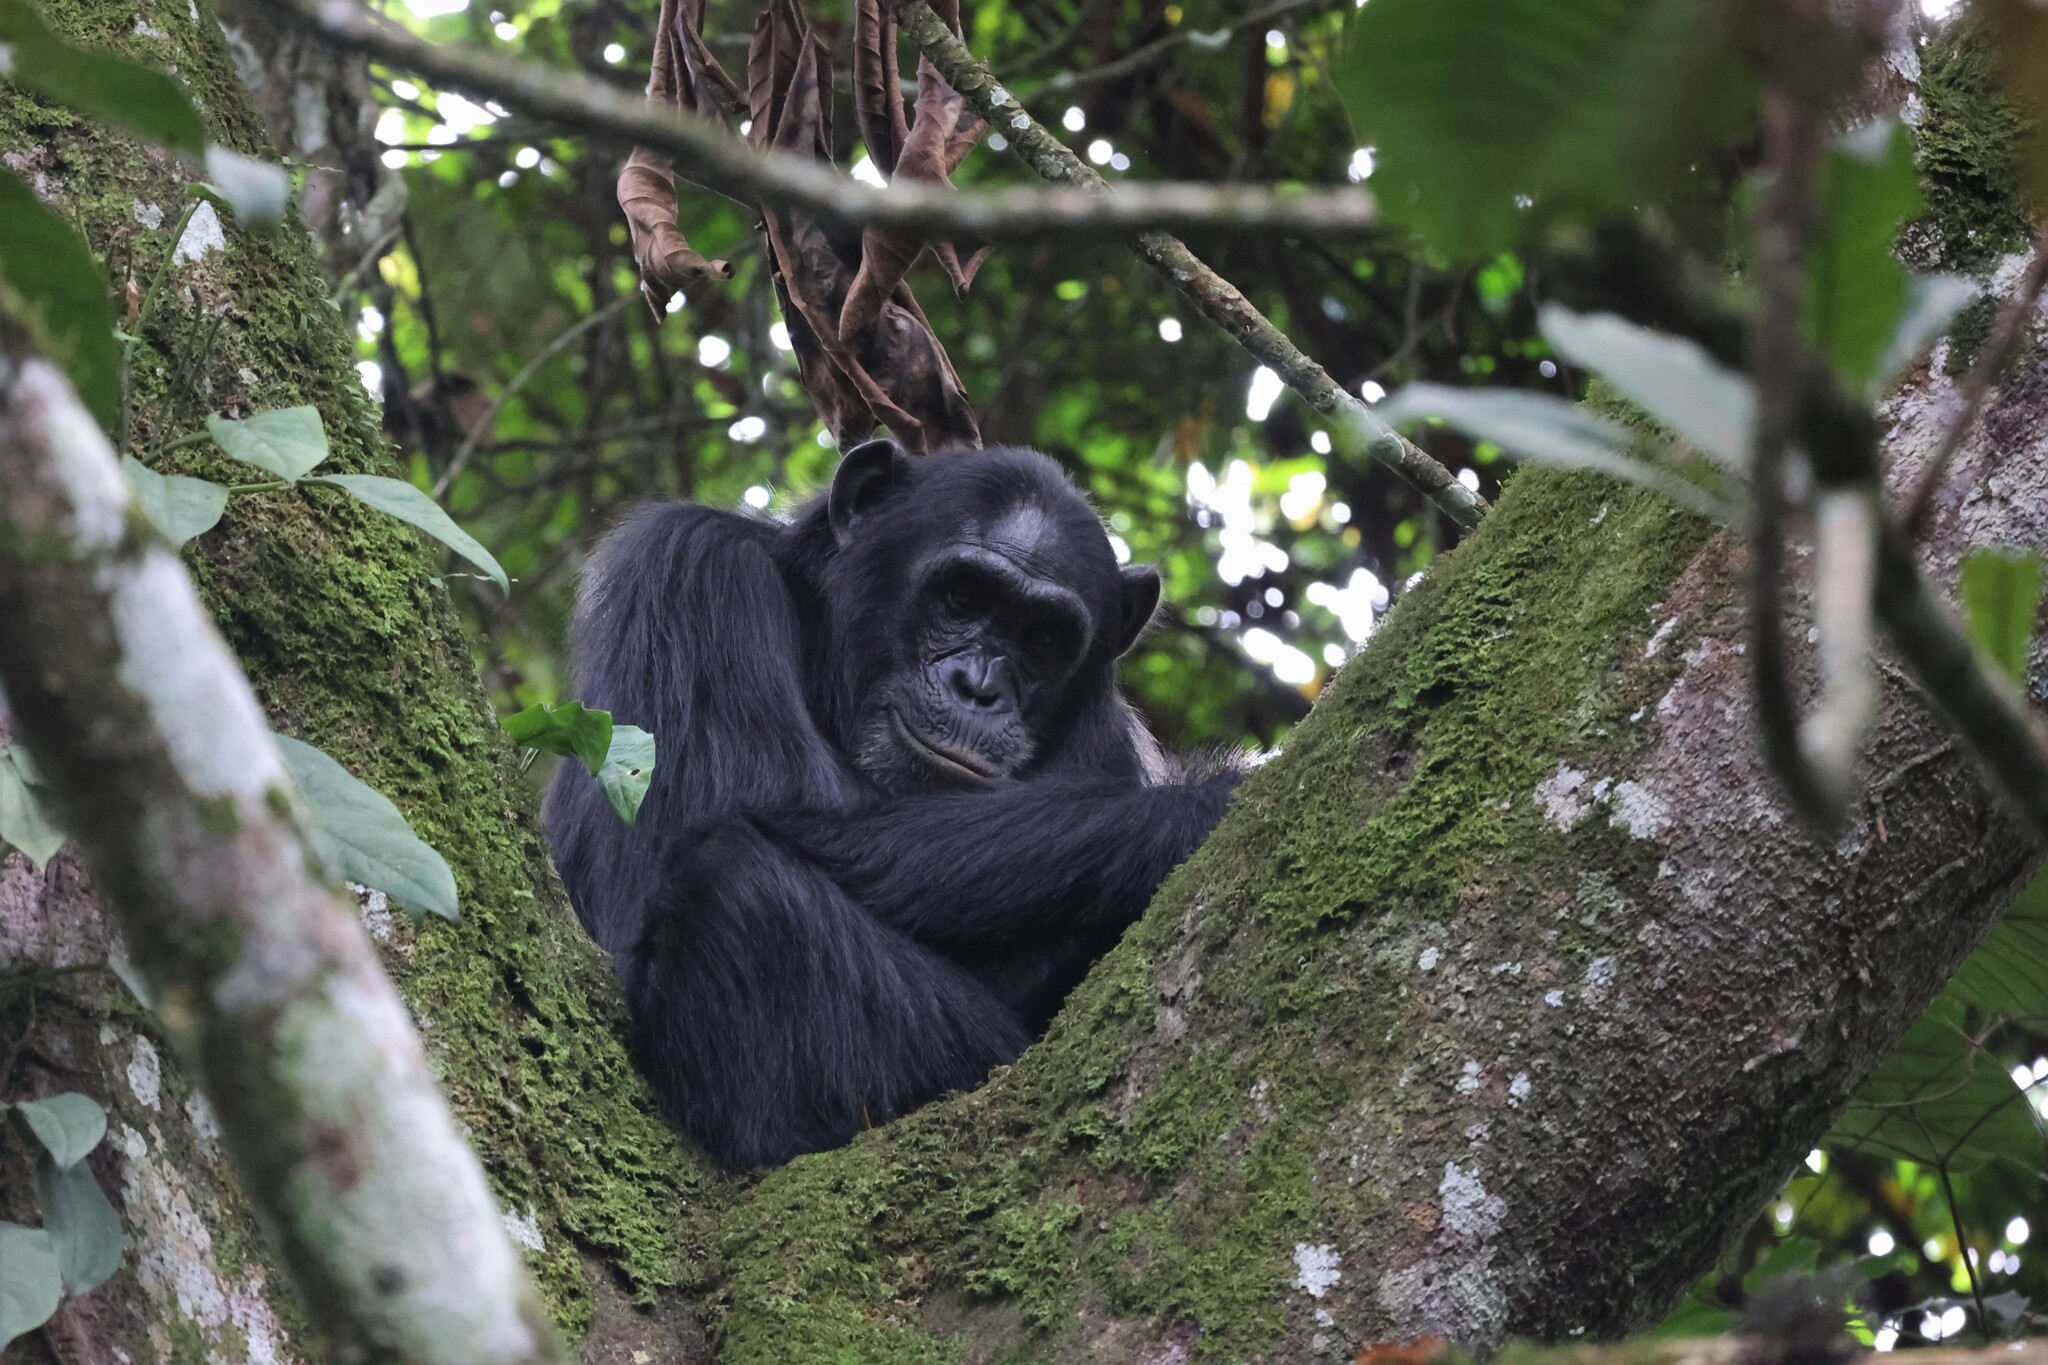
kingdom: Animalia
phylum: Chordata
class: Mammalia
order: Primates
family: Hominidae
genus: Pan
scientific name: Pan troglodytes
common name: Chimpanzee
